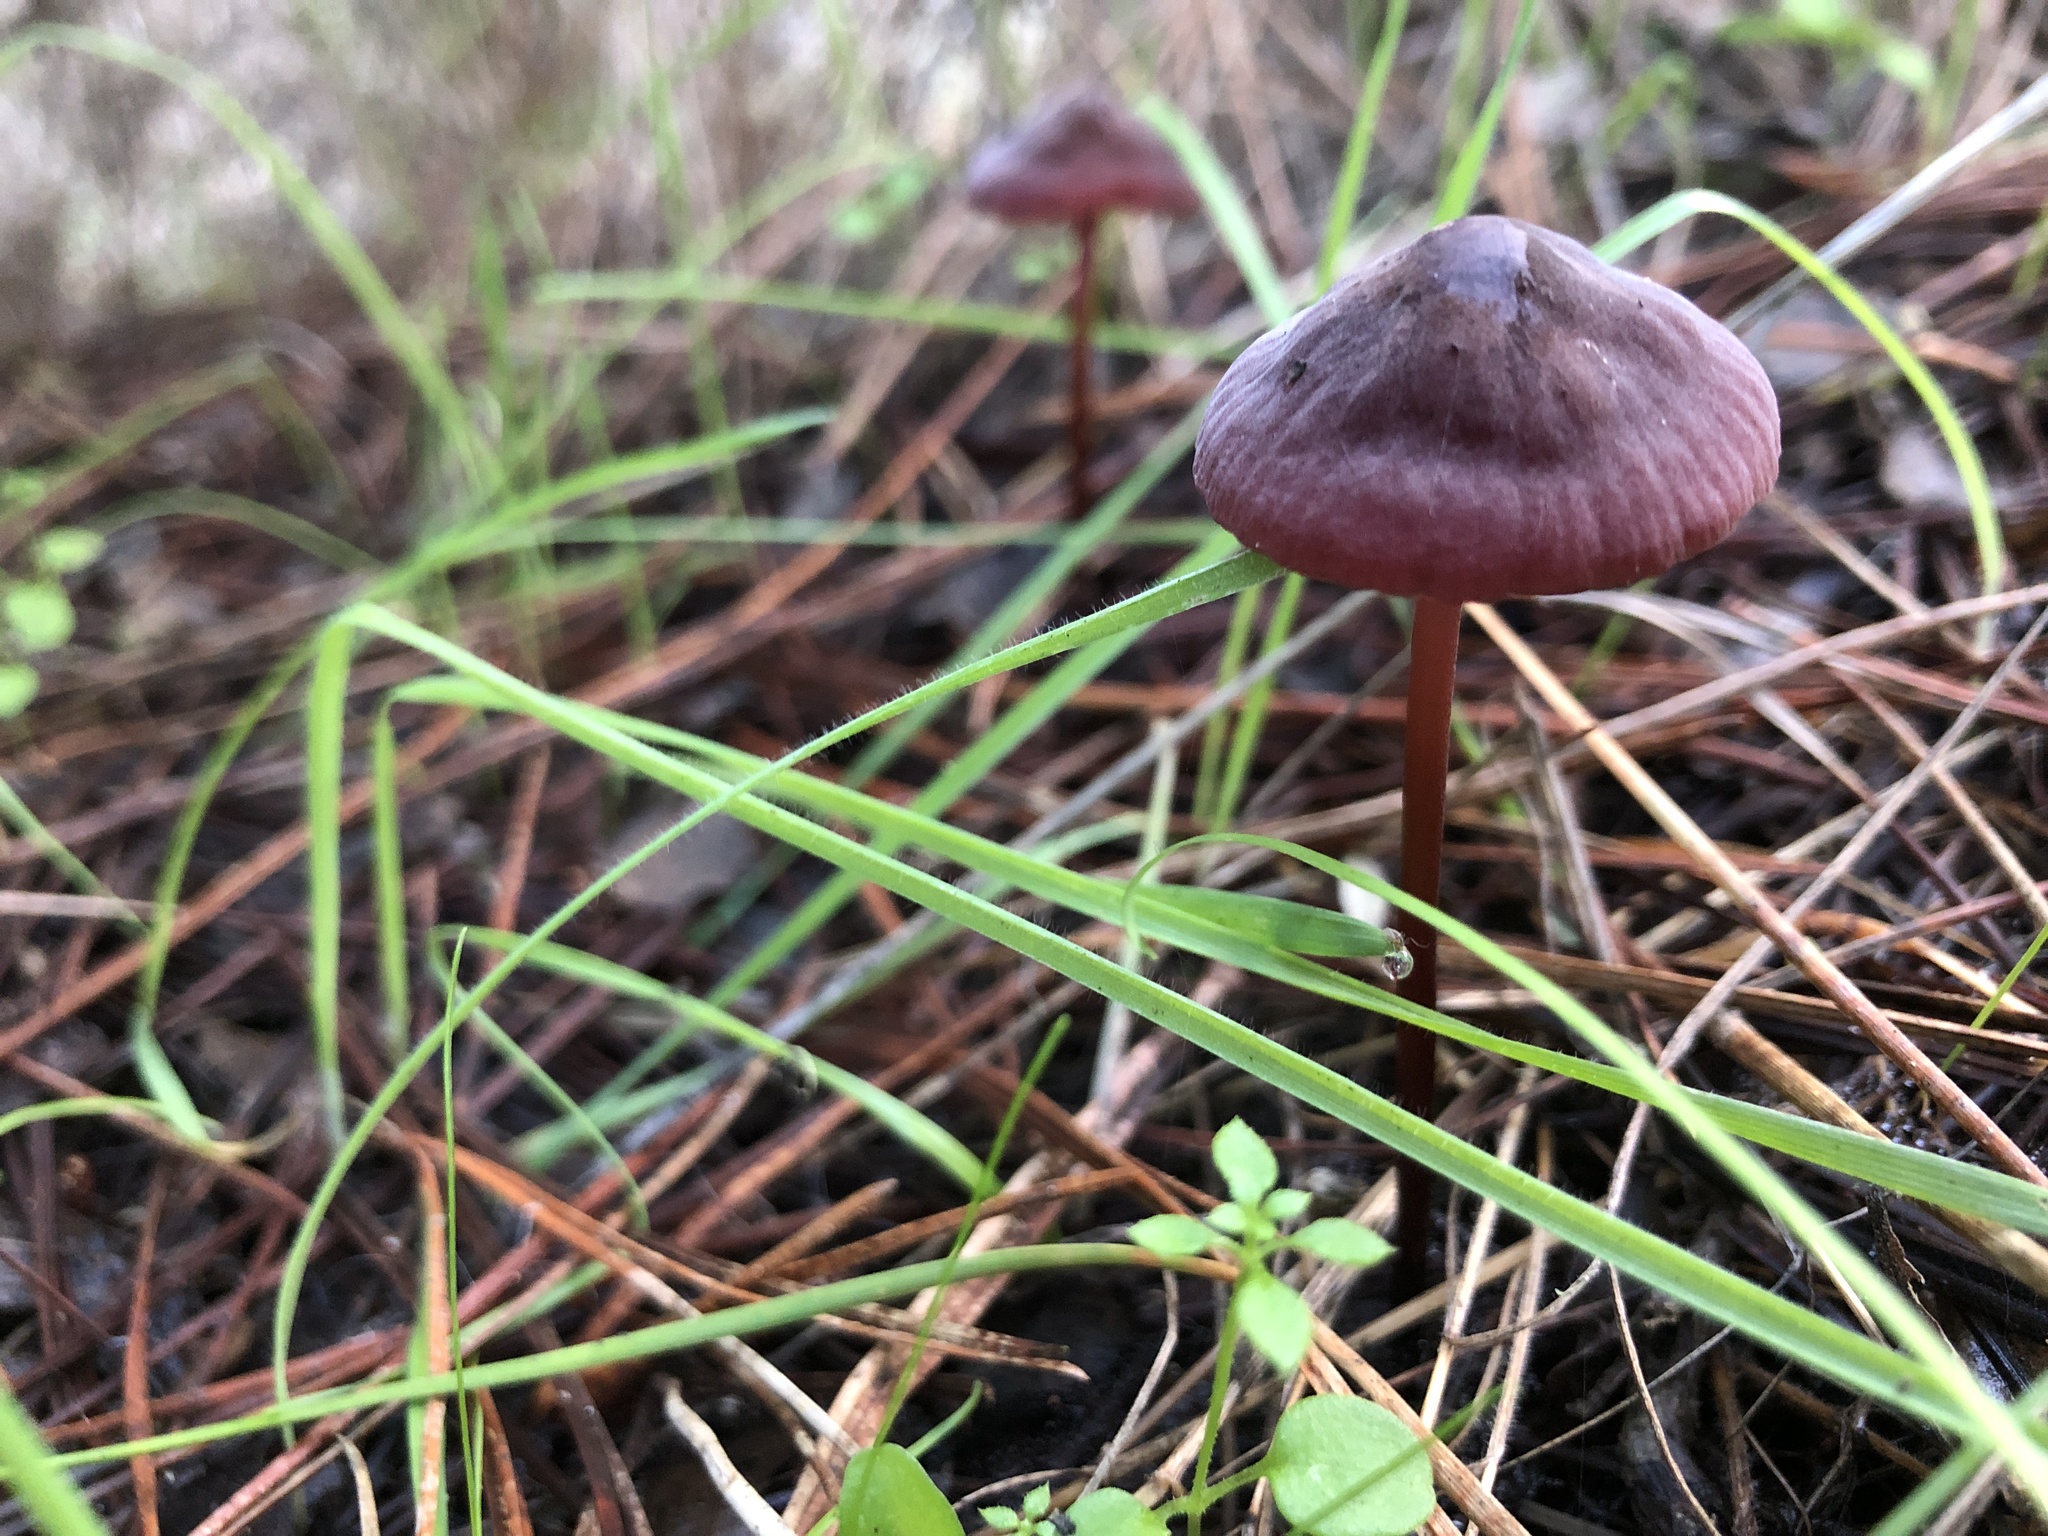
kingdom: Fungi
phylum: Basidiomycota
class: Agaricomycetes
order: Agaricales
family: Marasmiaceae
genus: Marasmius
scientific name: Marasmius plicatulus
